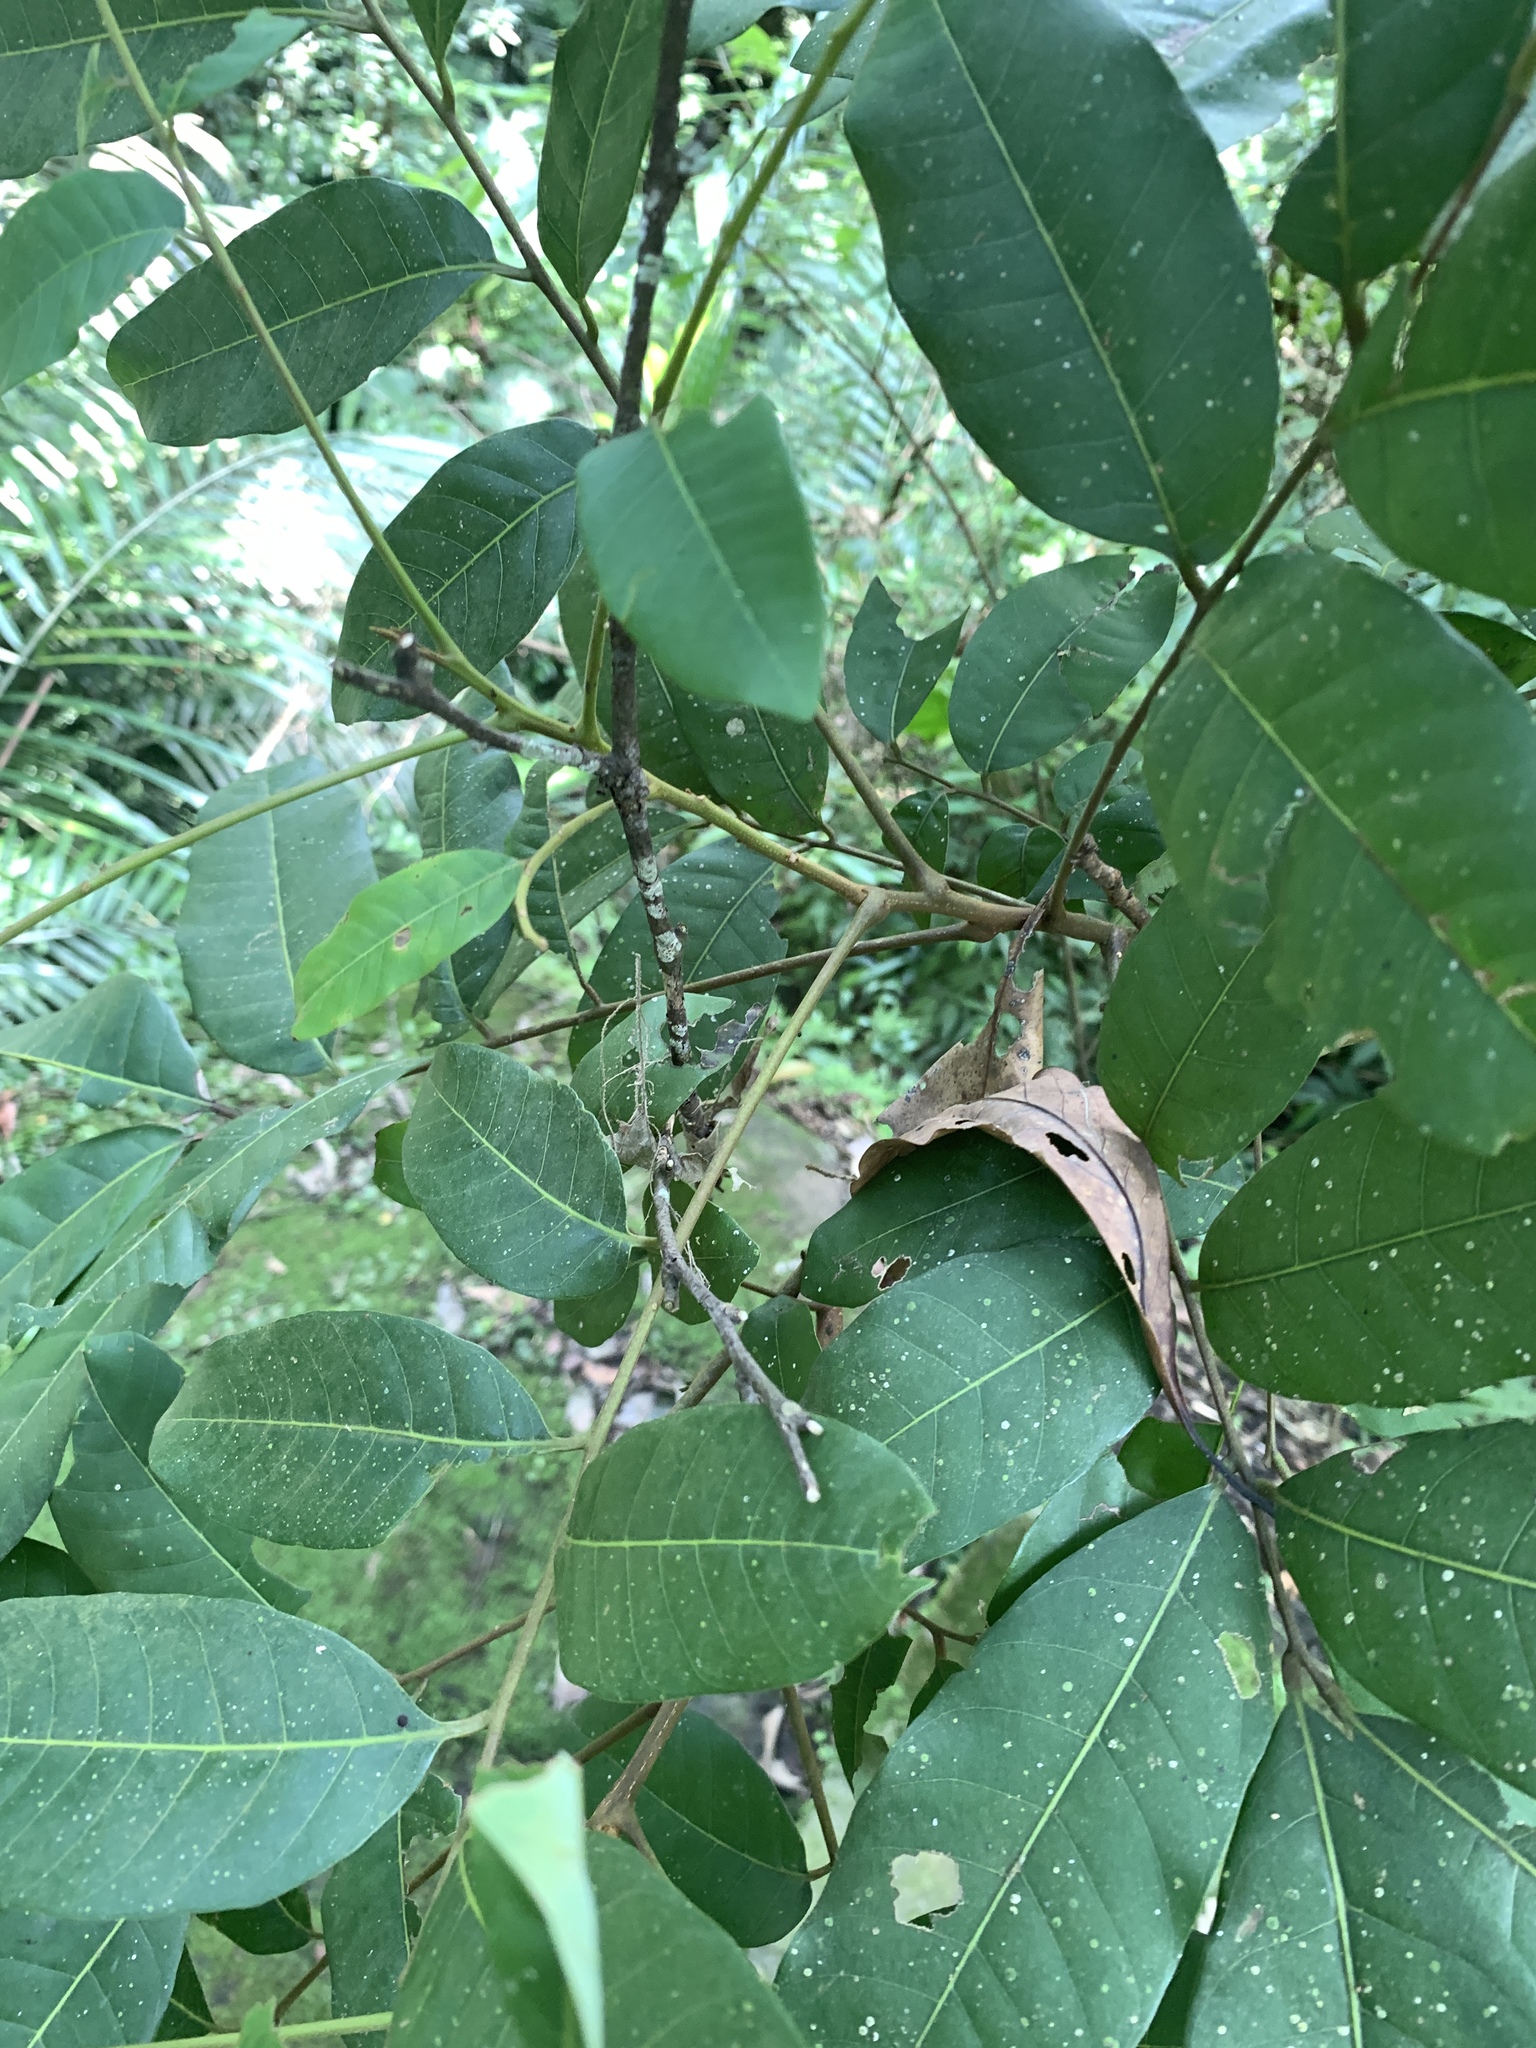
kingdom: Plantae
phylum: Tracheophyta
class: Magnoliopsida
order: Sapindales
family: Sapindaceae
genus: Dimocarpus
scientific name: Dimocarpus longan
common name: Longan
